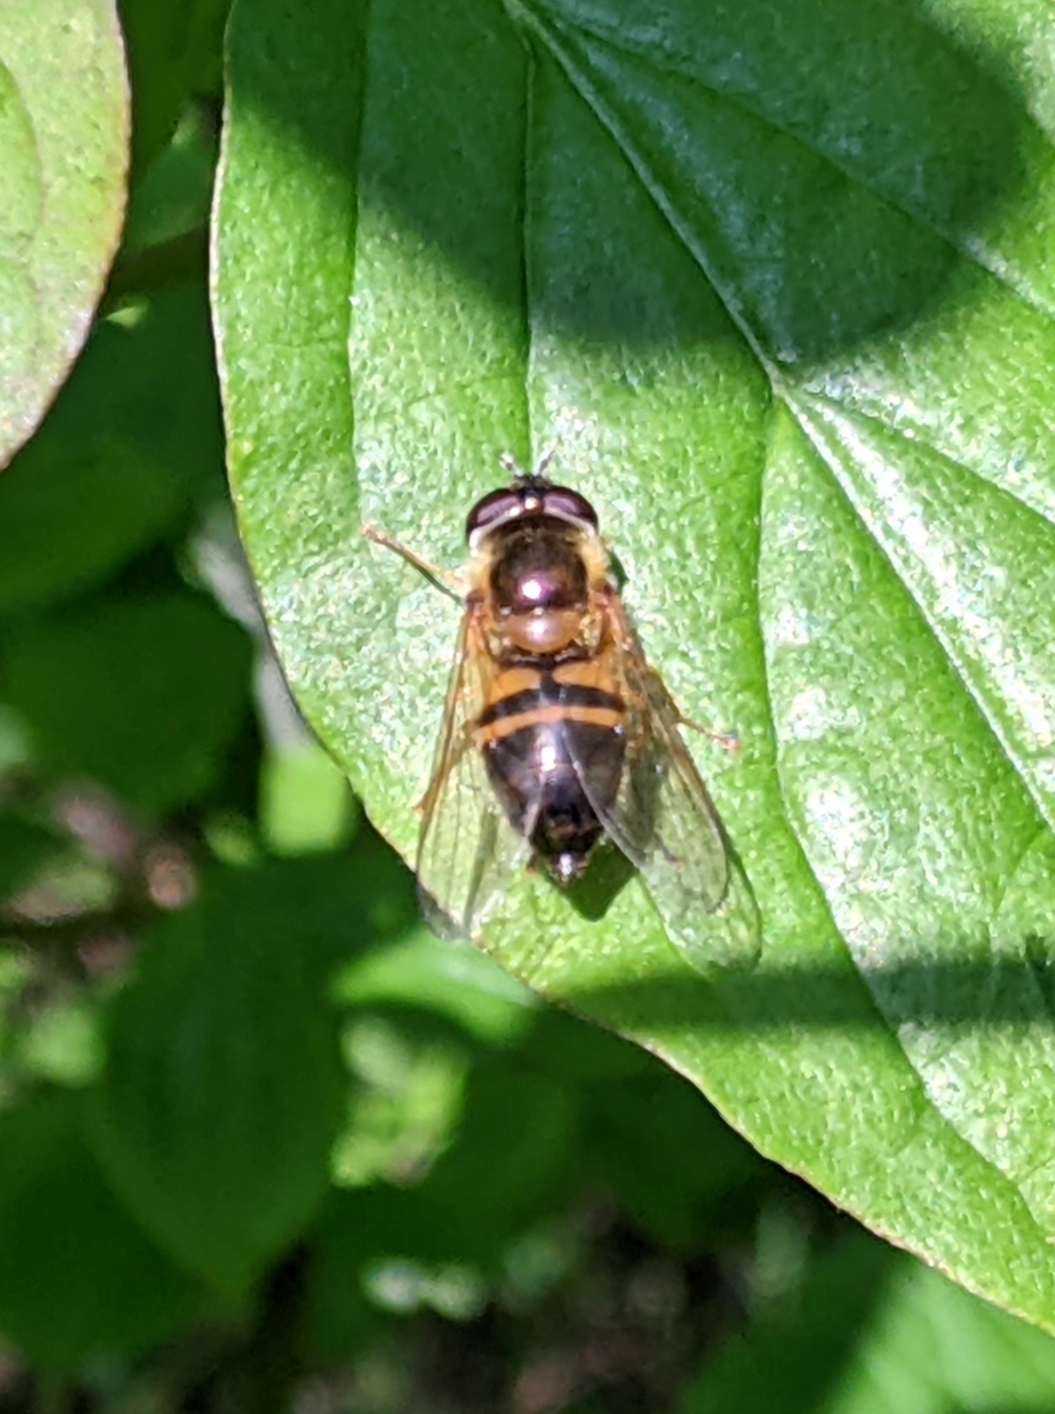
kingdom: Animalia
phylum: Arthropoda
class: Insecta
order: Diptera
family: Syrphidae
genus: Epistrophe
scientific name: Epistrophe eligans
